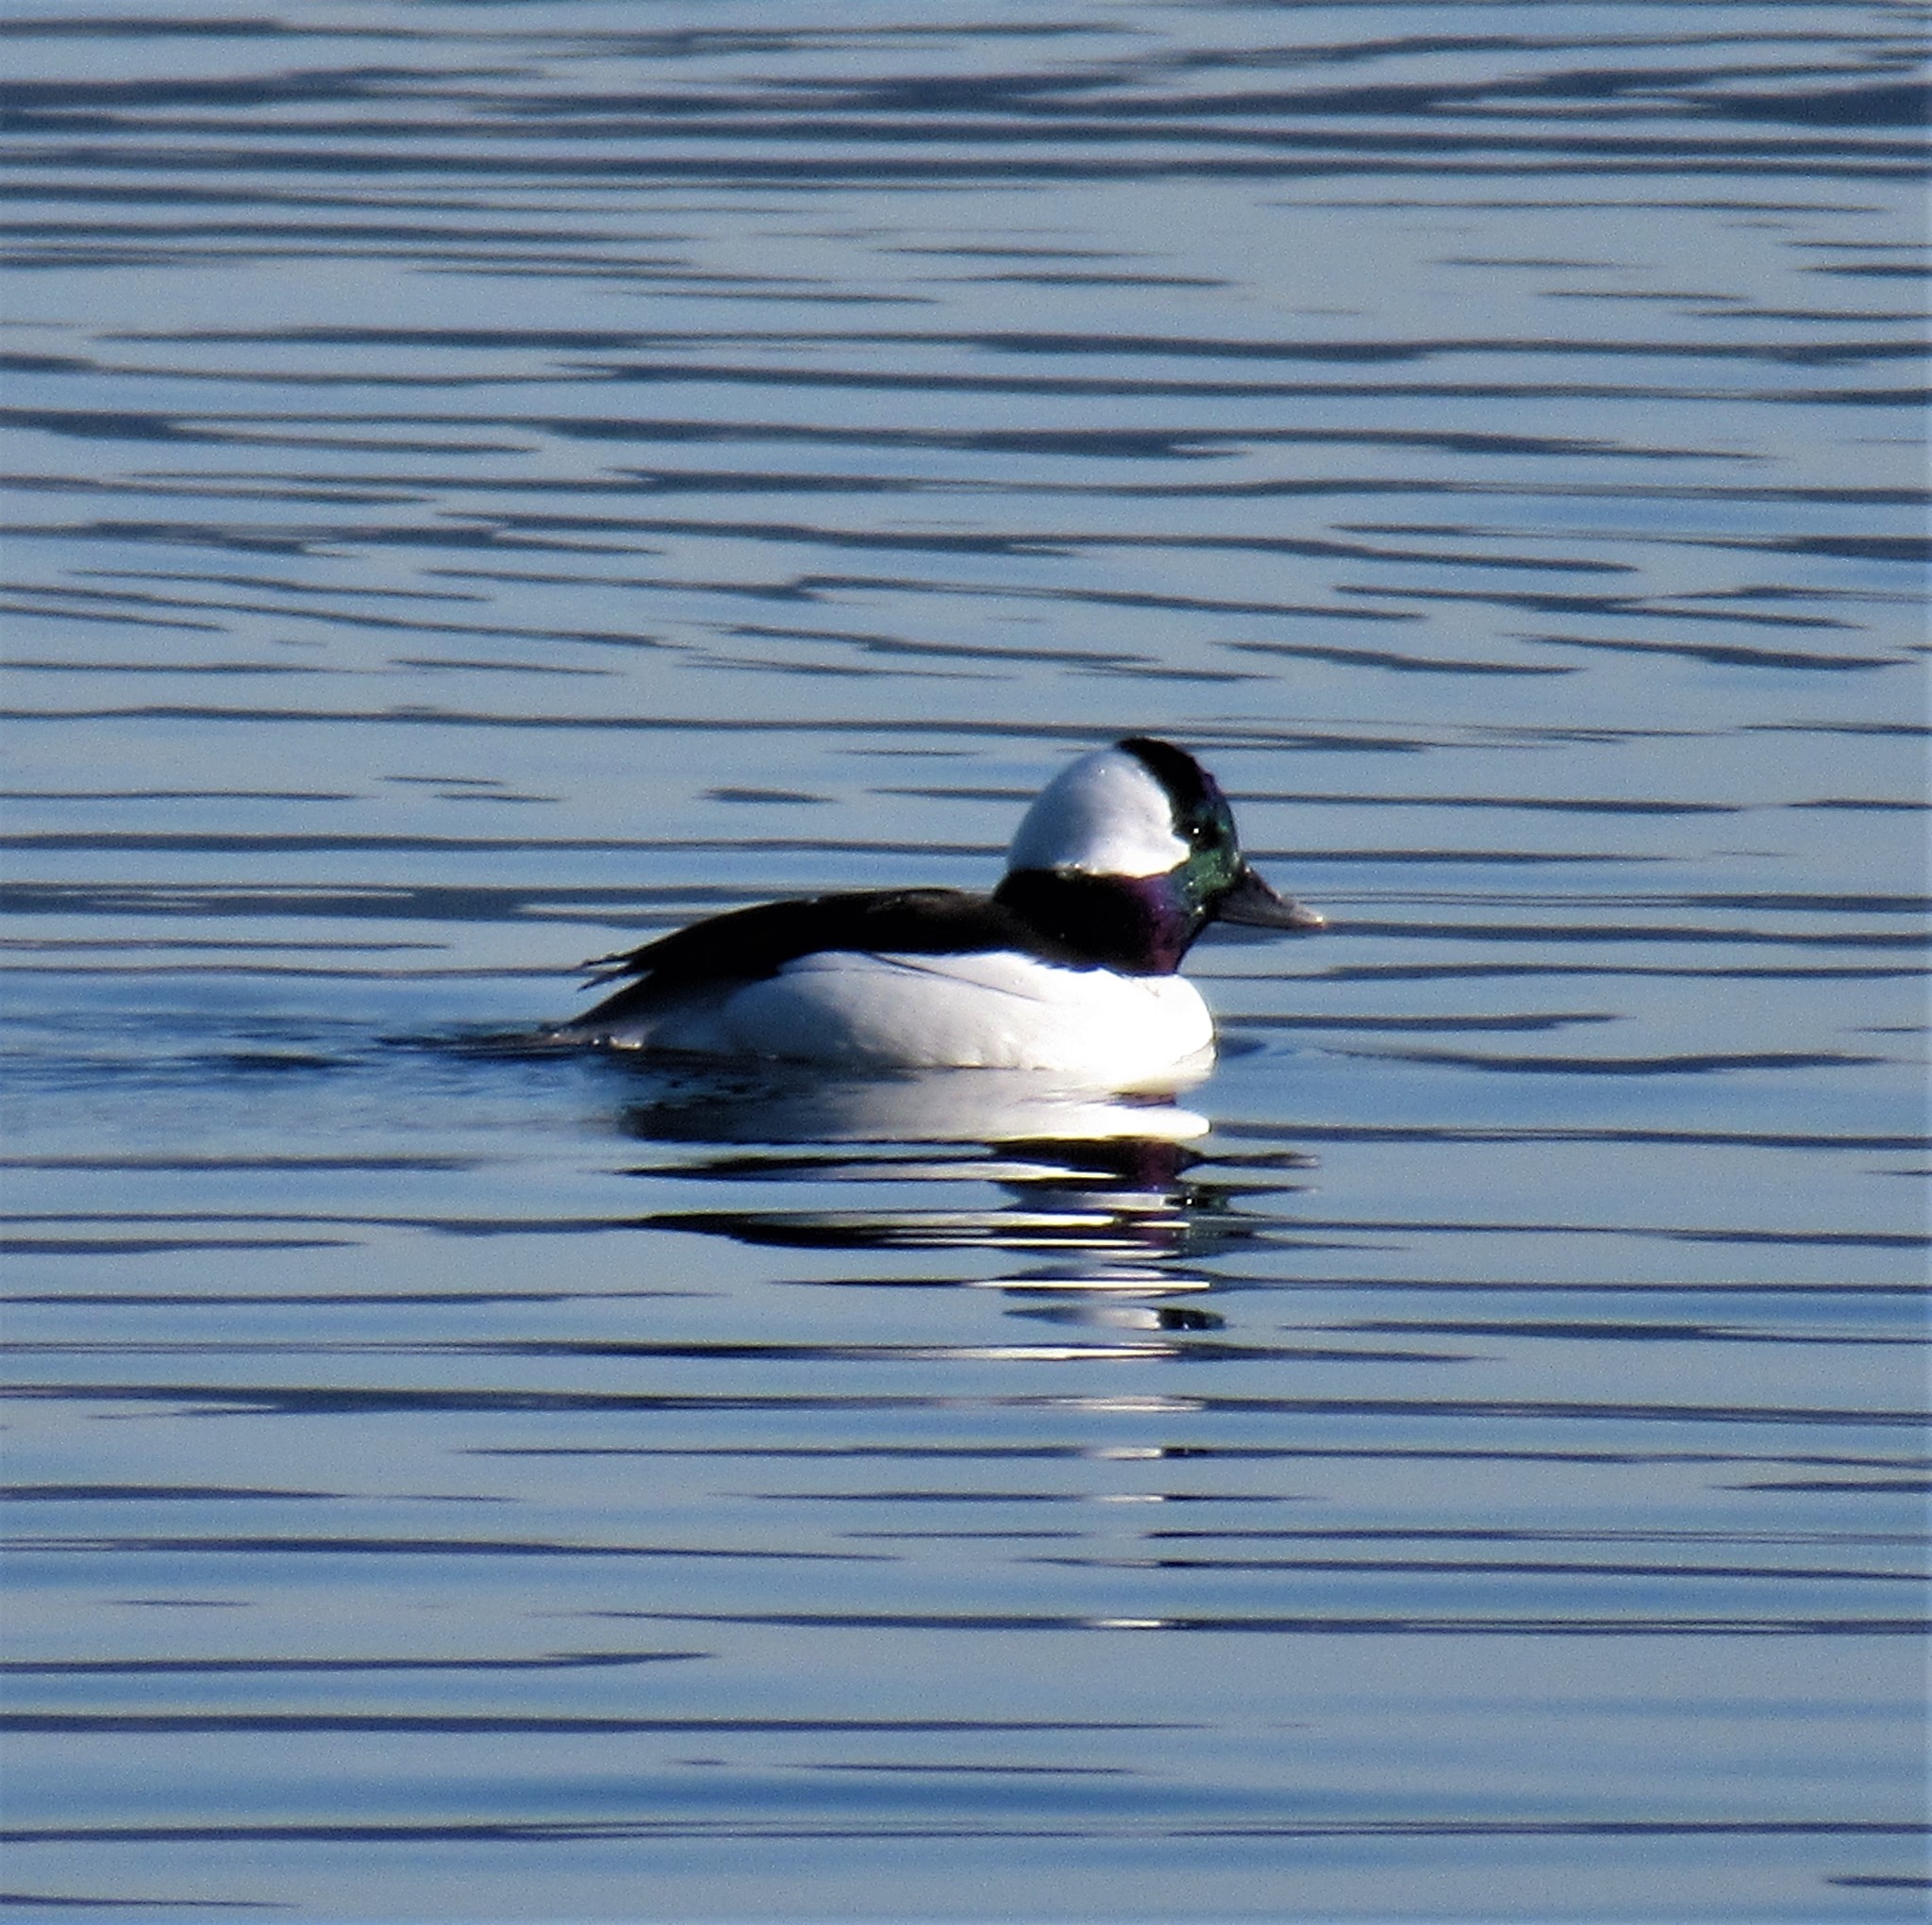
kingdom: Animalia
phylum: Chordata
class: Aves
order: Anseriformes
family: Anatidae
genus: Bucephala
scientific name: Bucephala albeola
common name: Bufflehead
